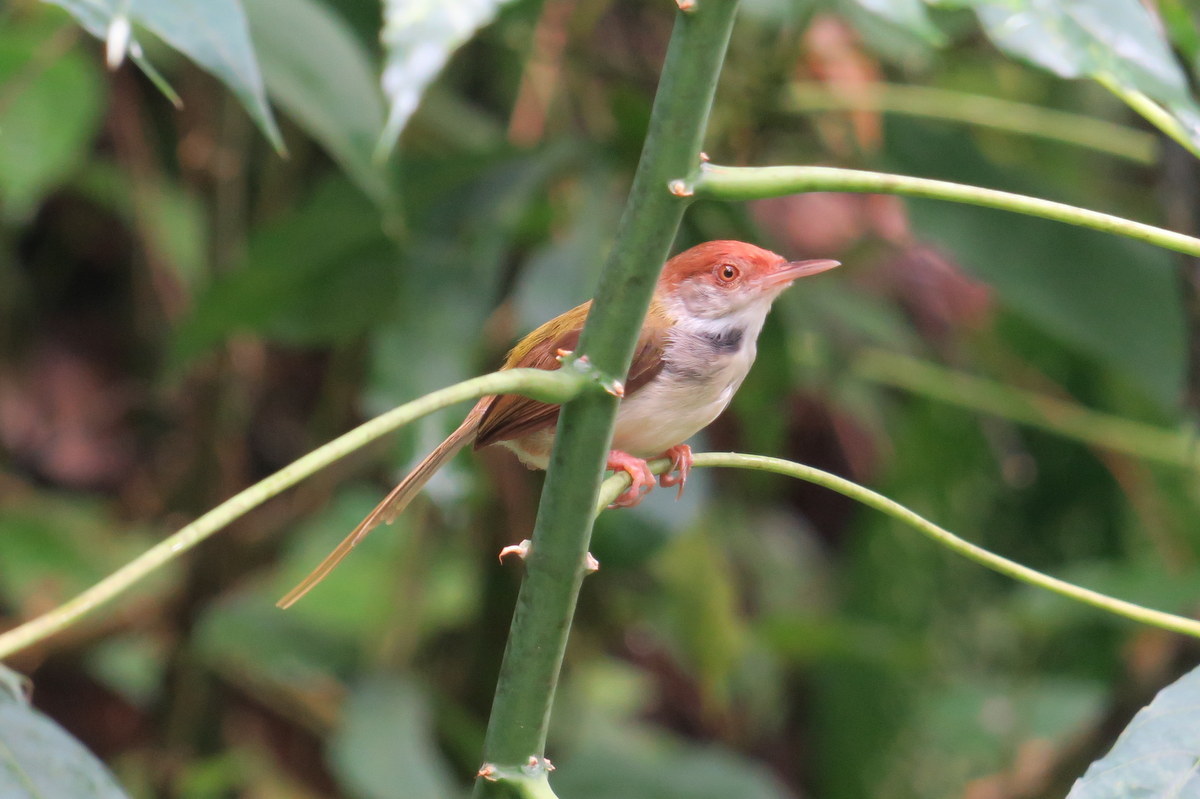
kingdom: Animalia
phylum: Chordata
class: Aves
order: Passeriformes
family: Cisticolidae
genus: Orthotomus
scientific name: Orthotomus sutorius
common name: Common tailorbird
